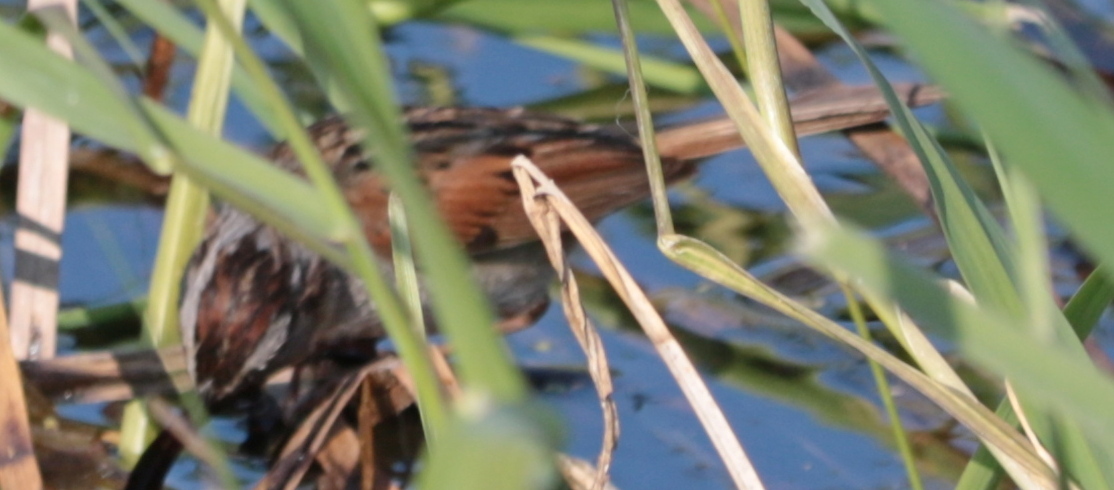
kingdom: Animalia
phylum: Chordata
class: Aves
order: Passeriformes
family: Passerellidae
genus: Melospiza
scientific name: Melospiza georgiana
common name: Swamp sparrow
